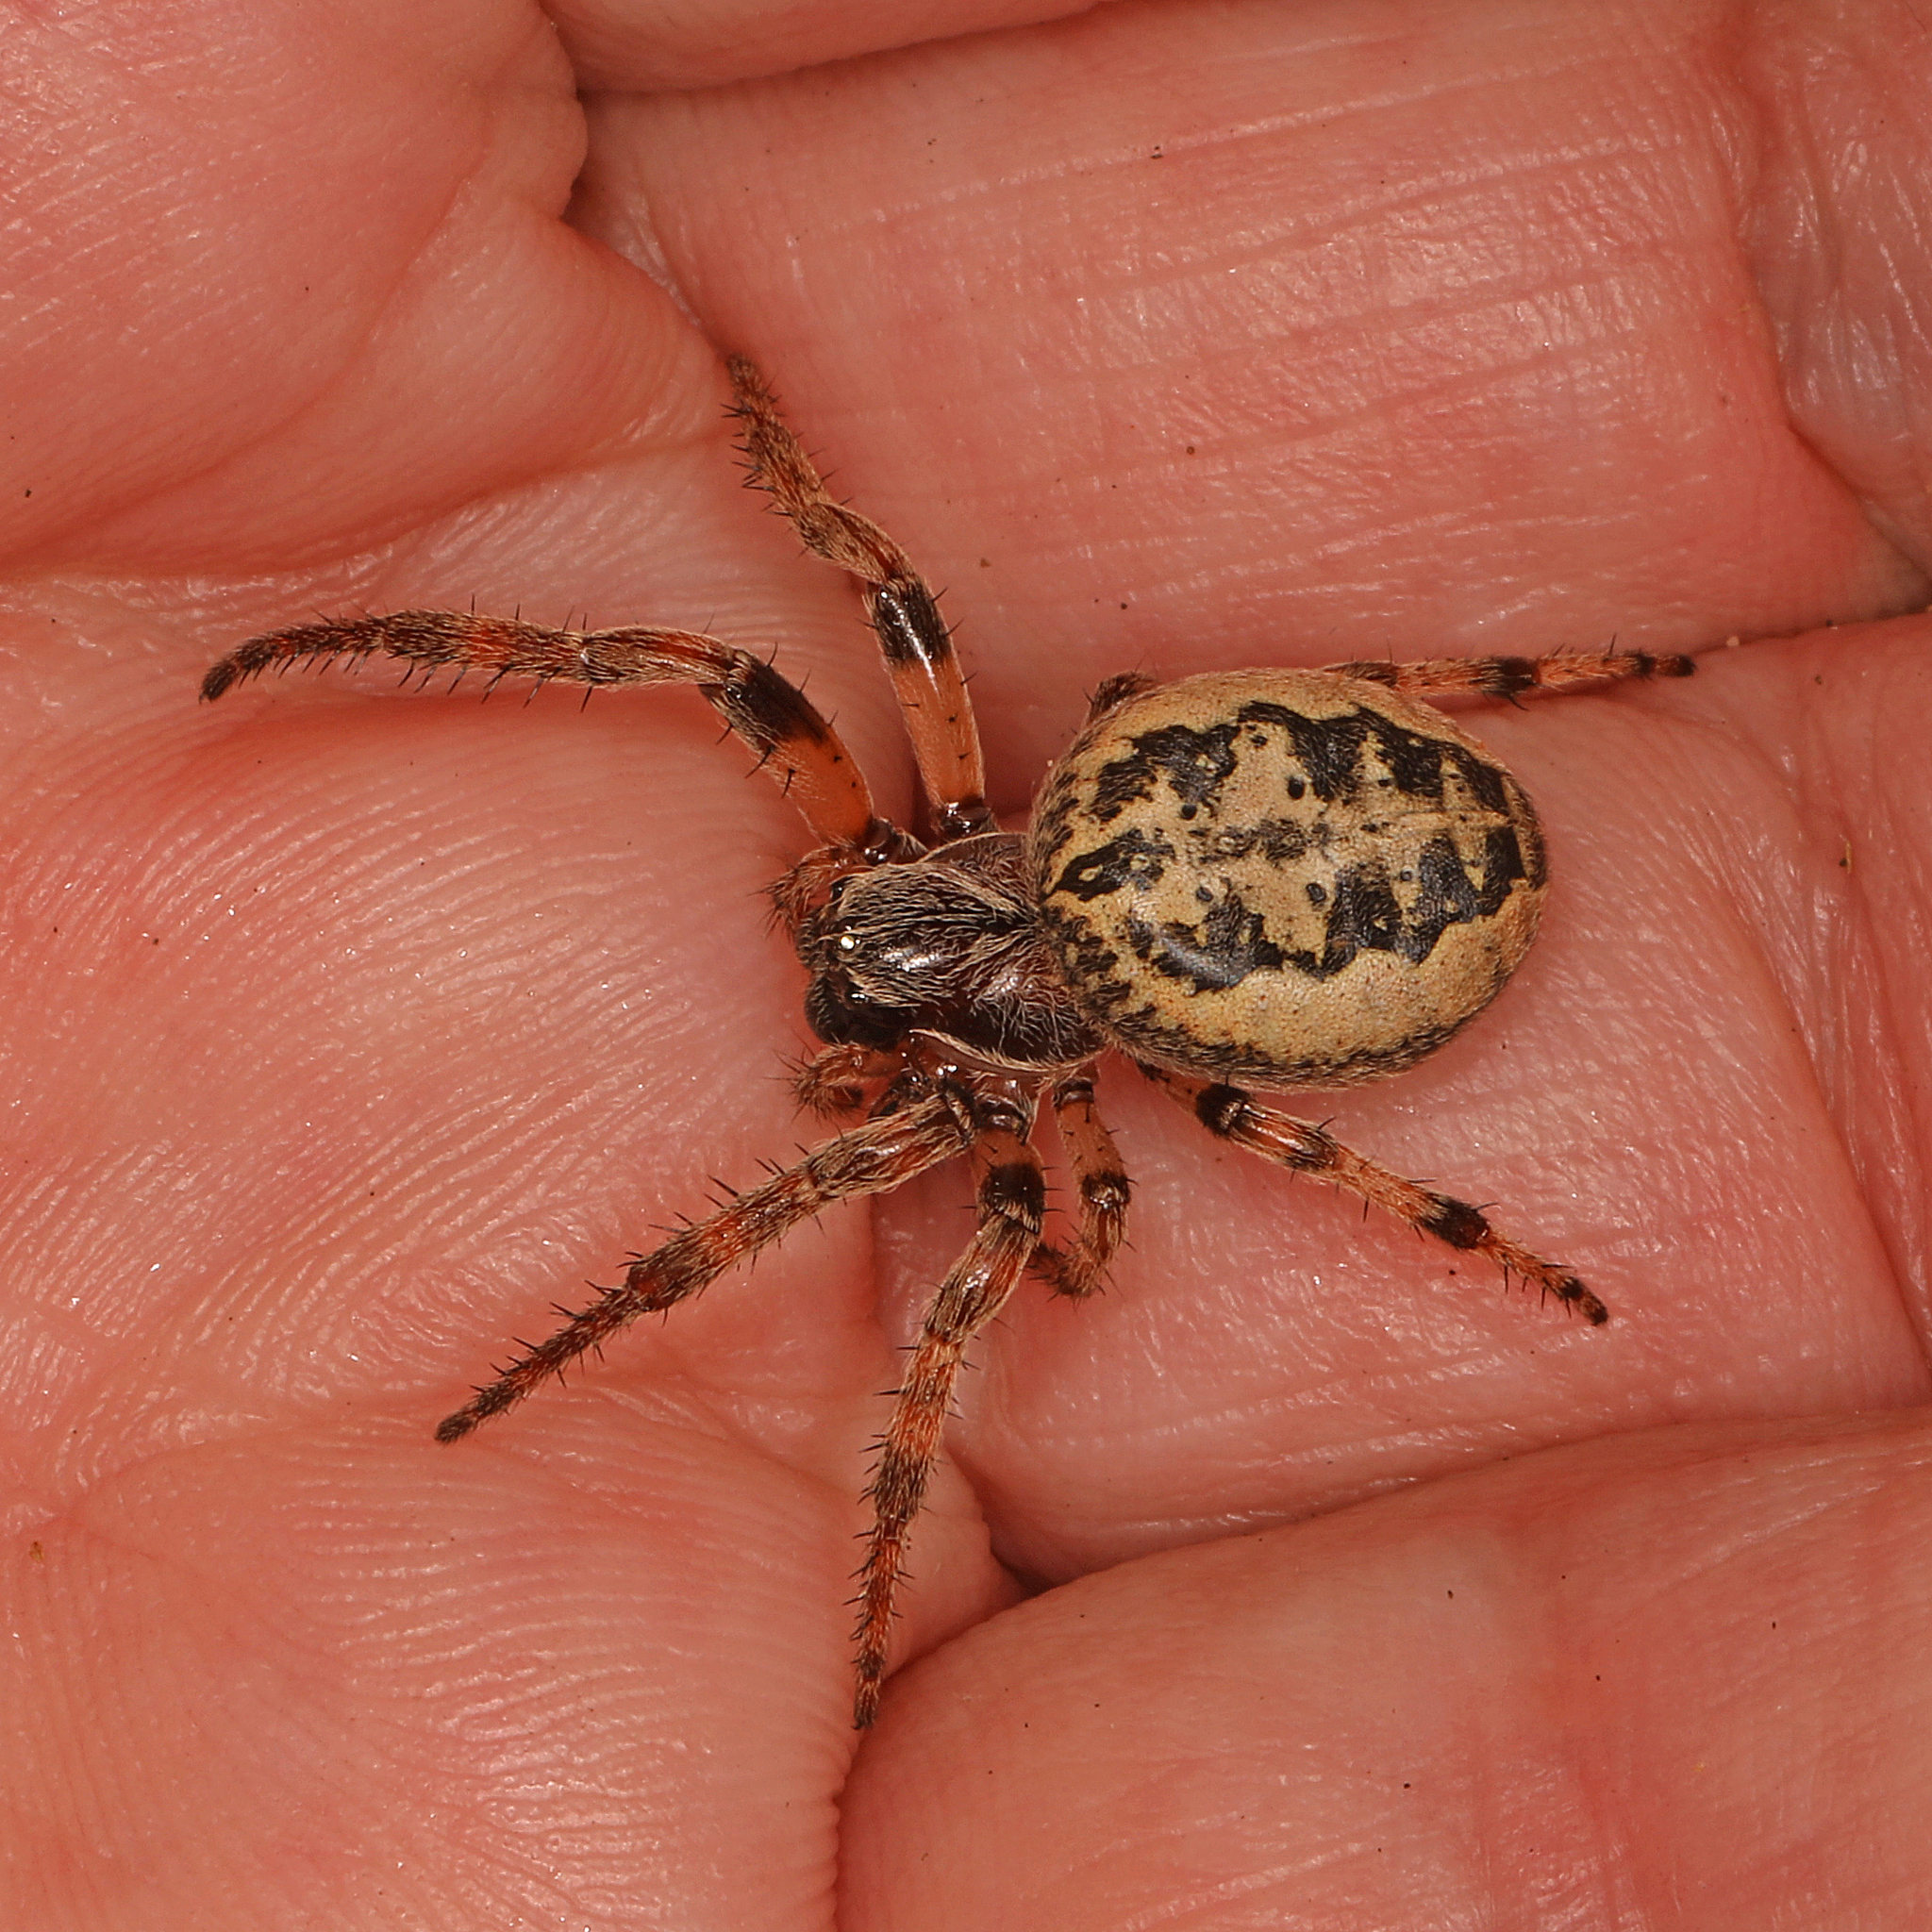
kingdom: Animalia
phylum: Arthropoda
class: Arachnida
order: Araneae
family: Araneidae
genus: Larinioides
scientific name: Larinioides cornutus
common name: Furrow orbweaver
